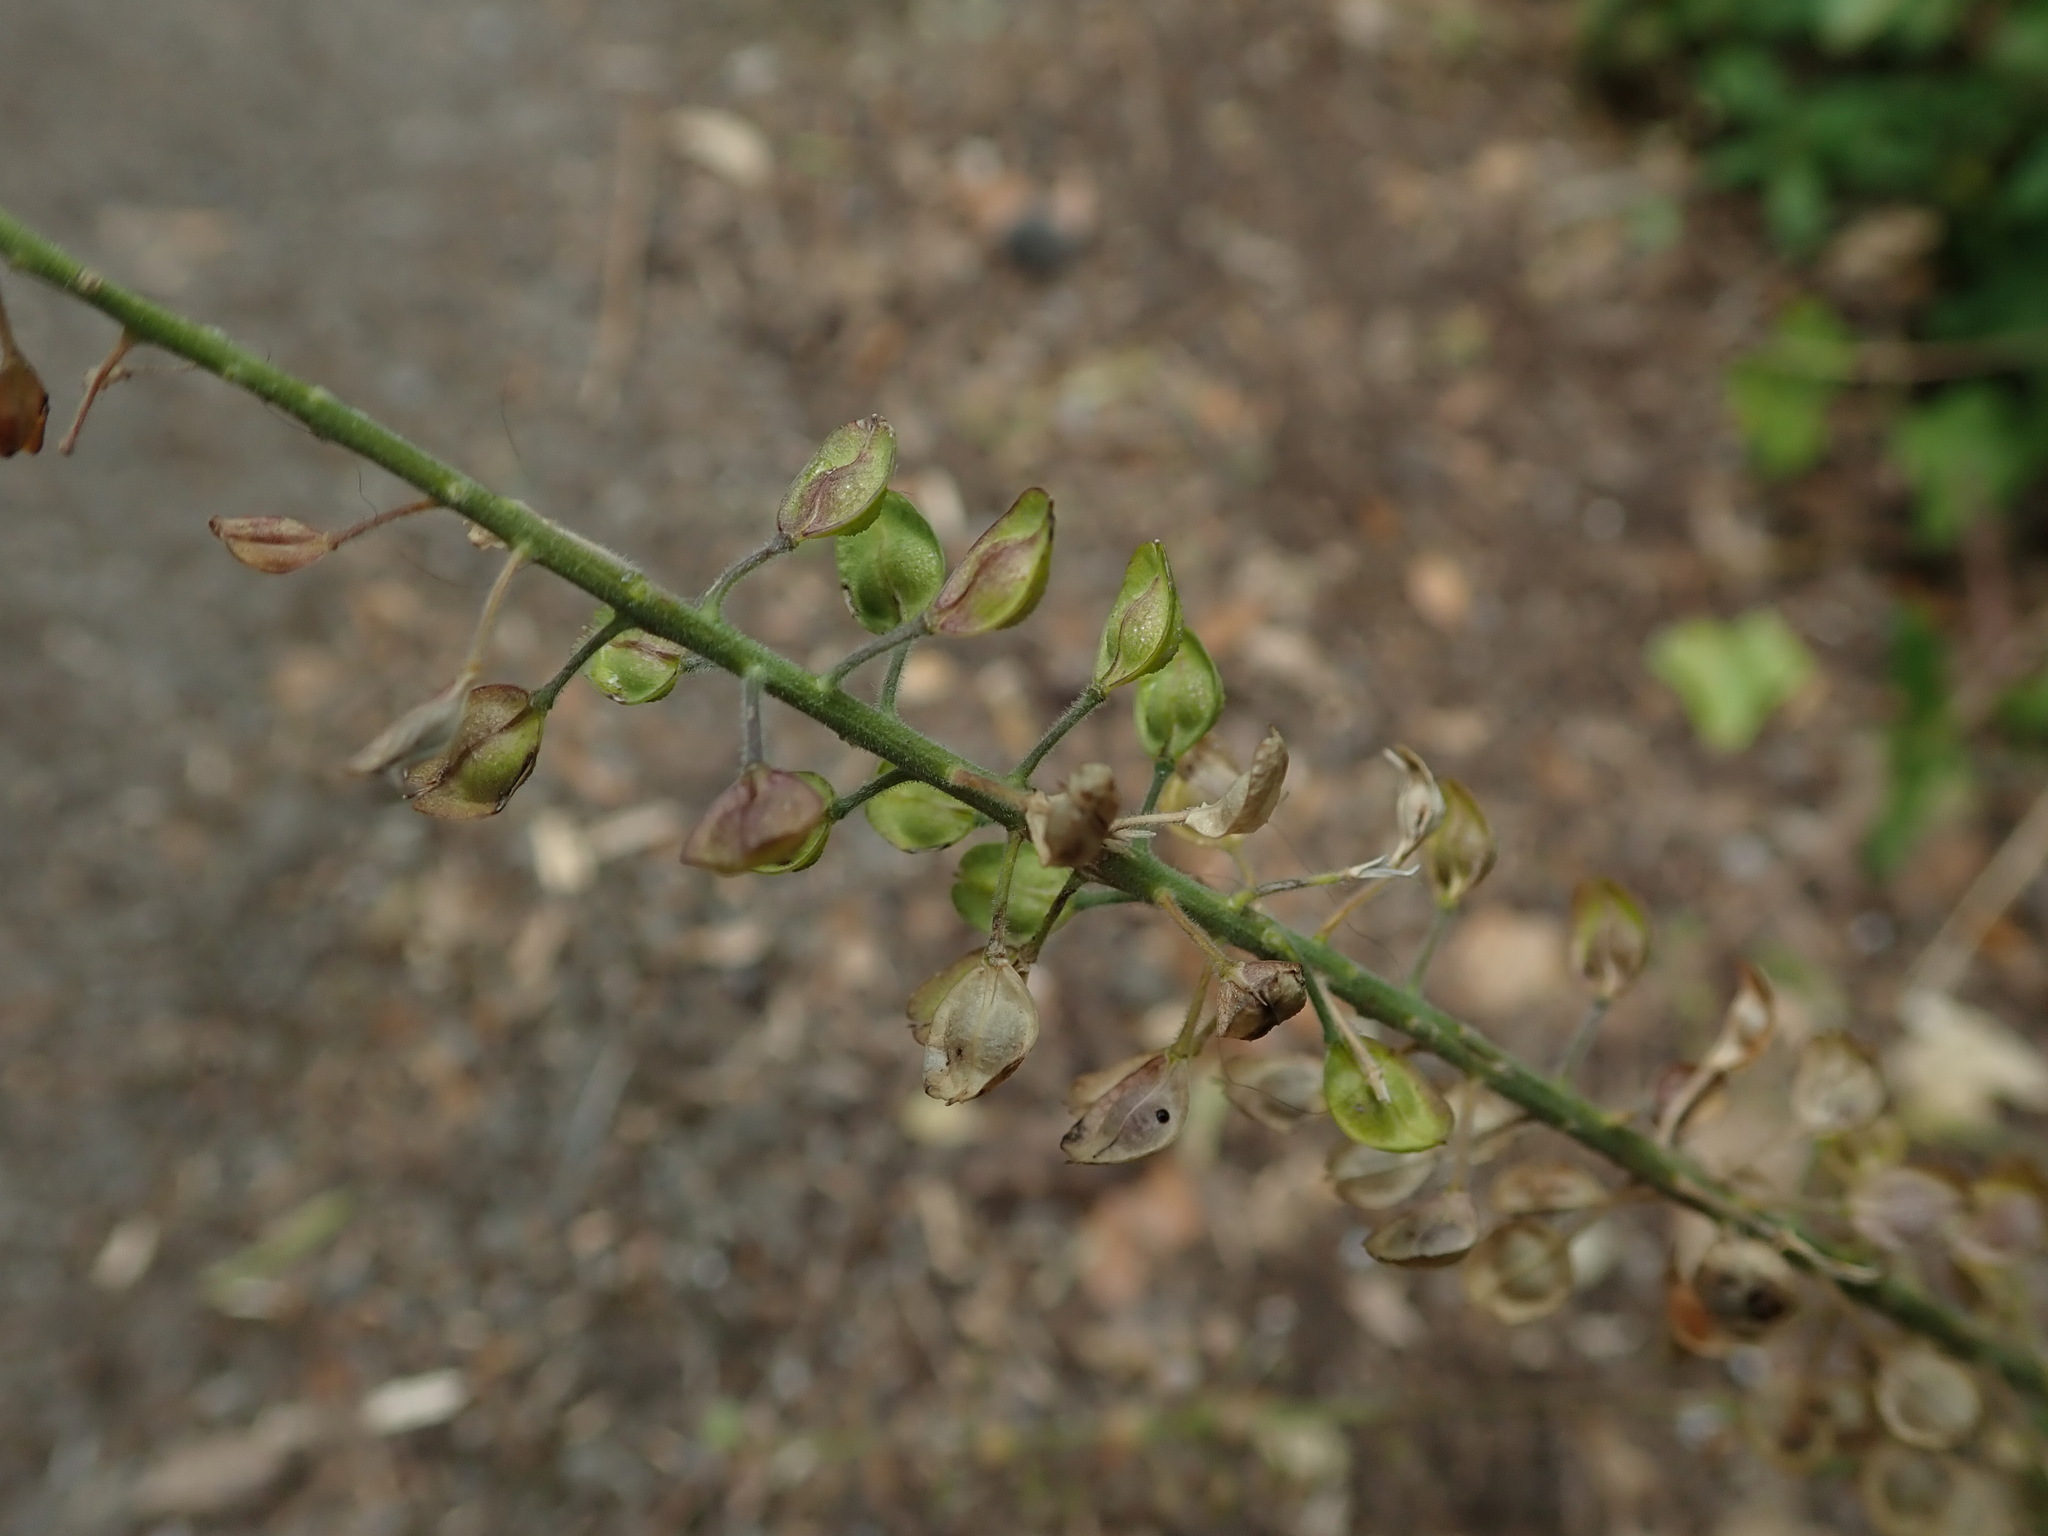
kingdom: Plantae
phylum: Tracheophyta
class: Magnoliopsida
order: Brassicales
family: Brassicaceae
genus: Lepidium
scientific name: Lepidium campestre
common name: Field pepperwort
